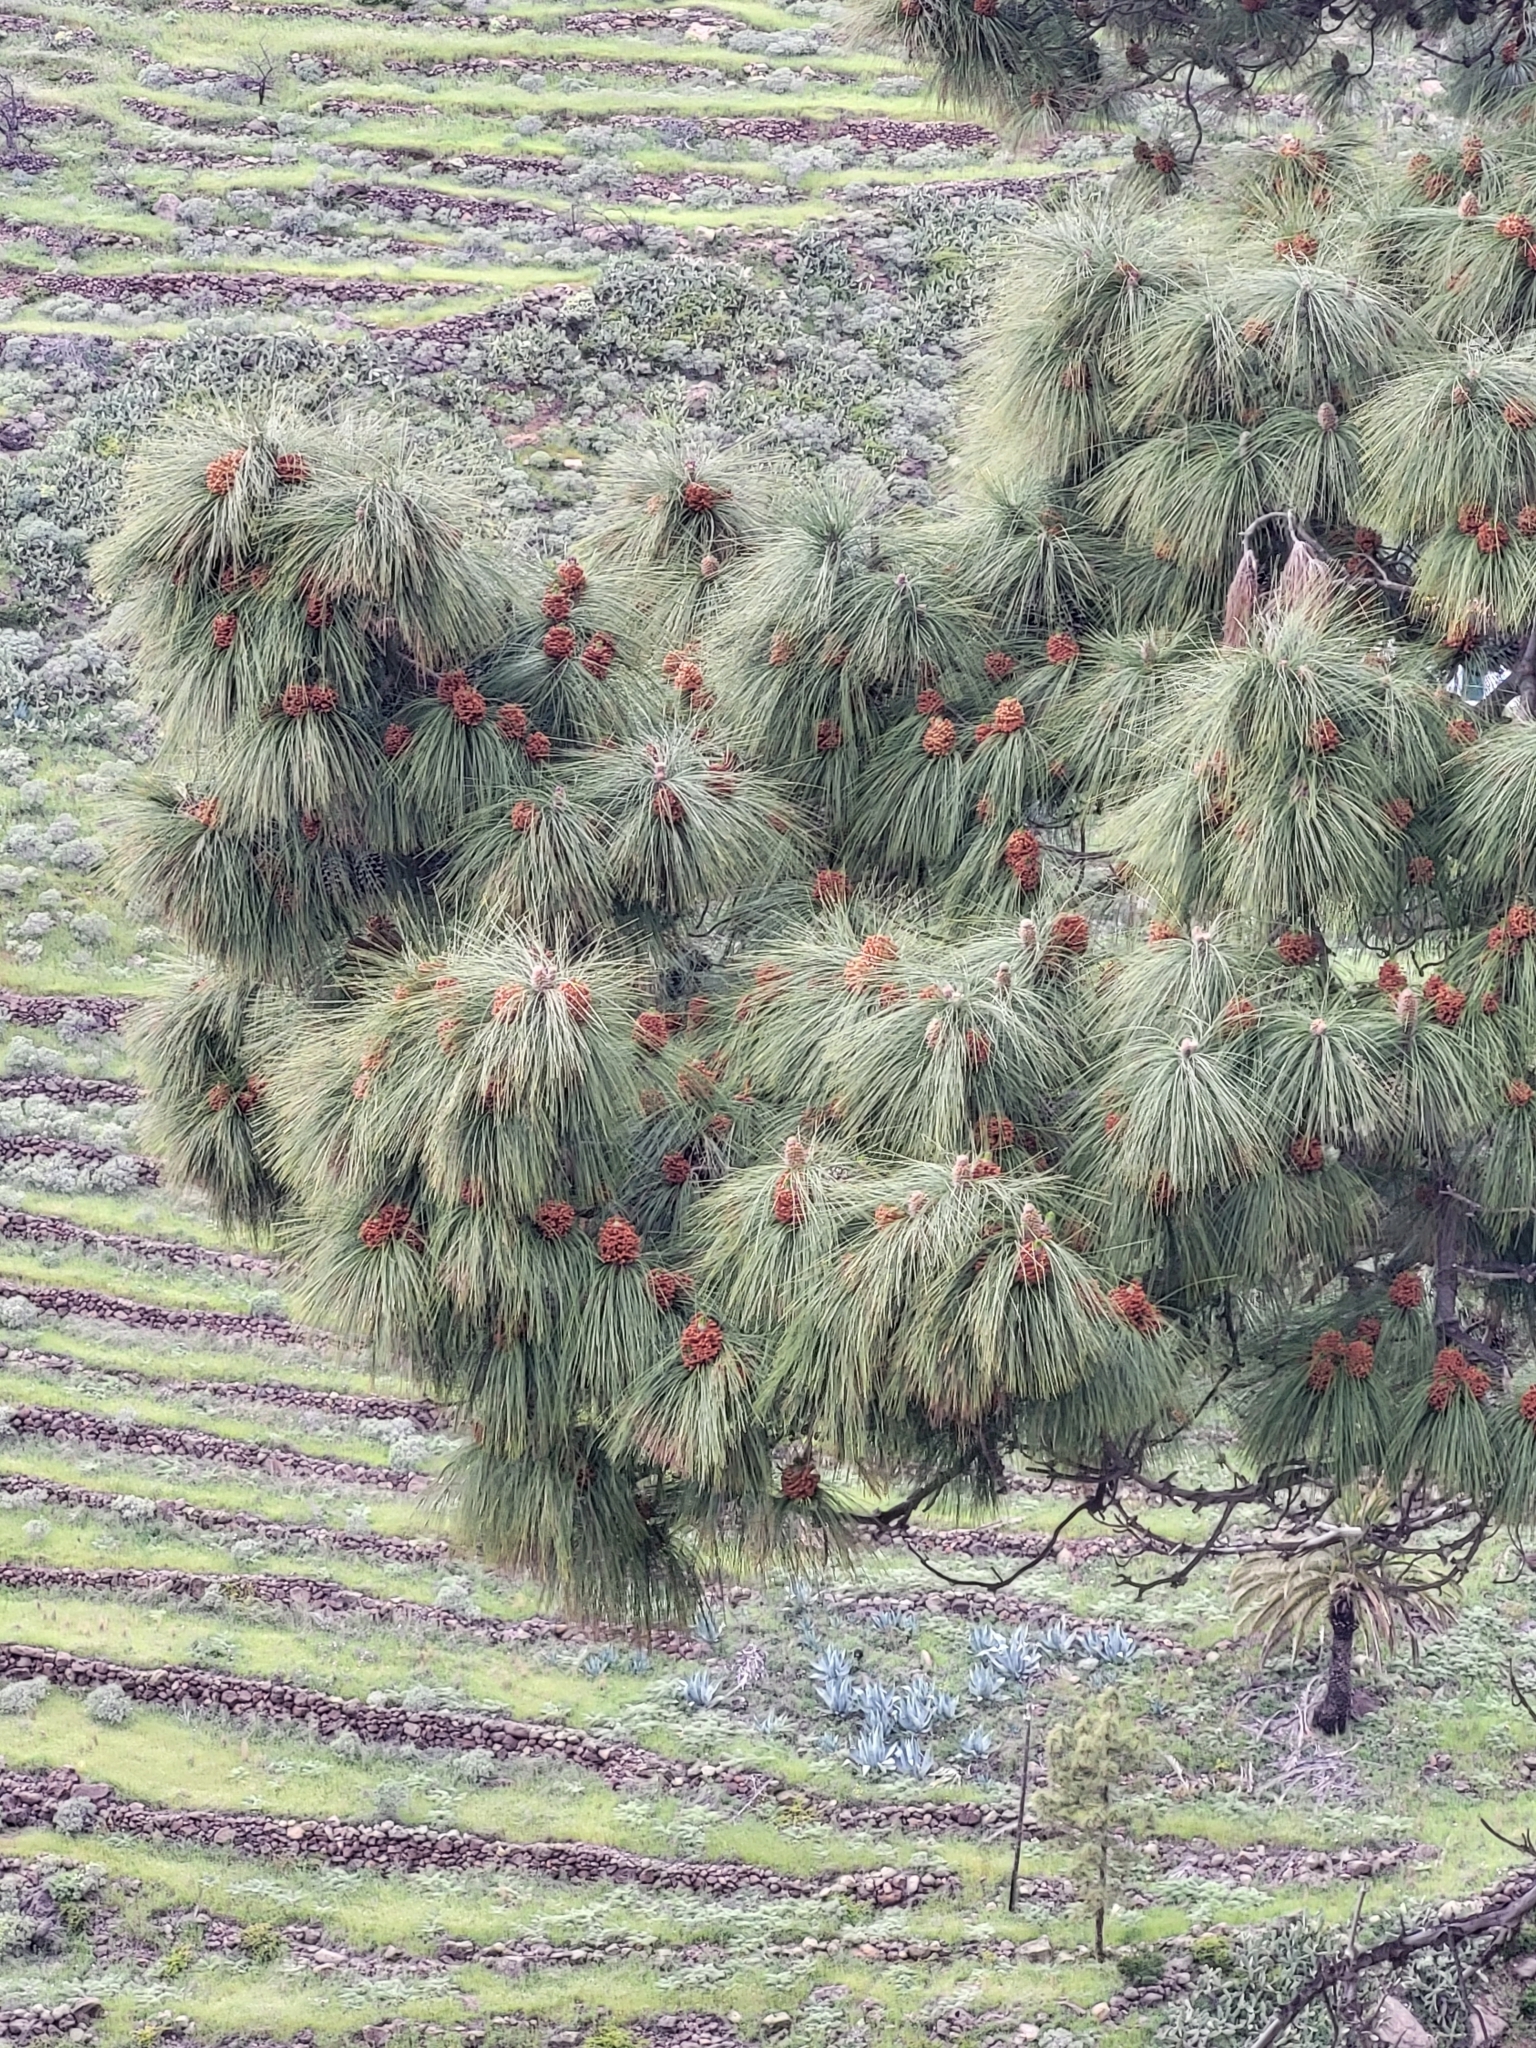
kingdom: Plantae
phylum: Tracheophyta
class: Pinopsida
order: Pinales
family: Pinaceae
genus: Pinus
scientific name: Pinus canariensis
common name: Canary islands pine
